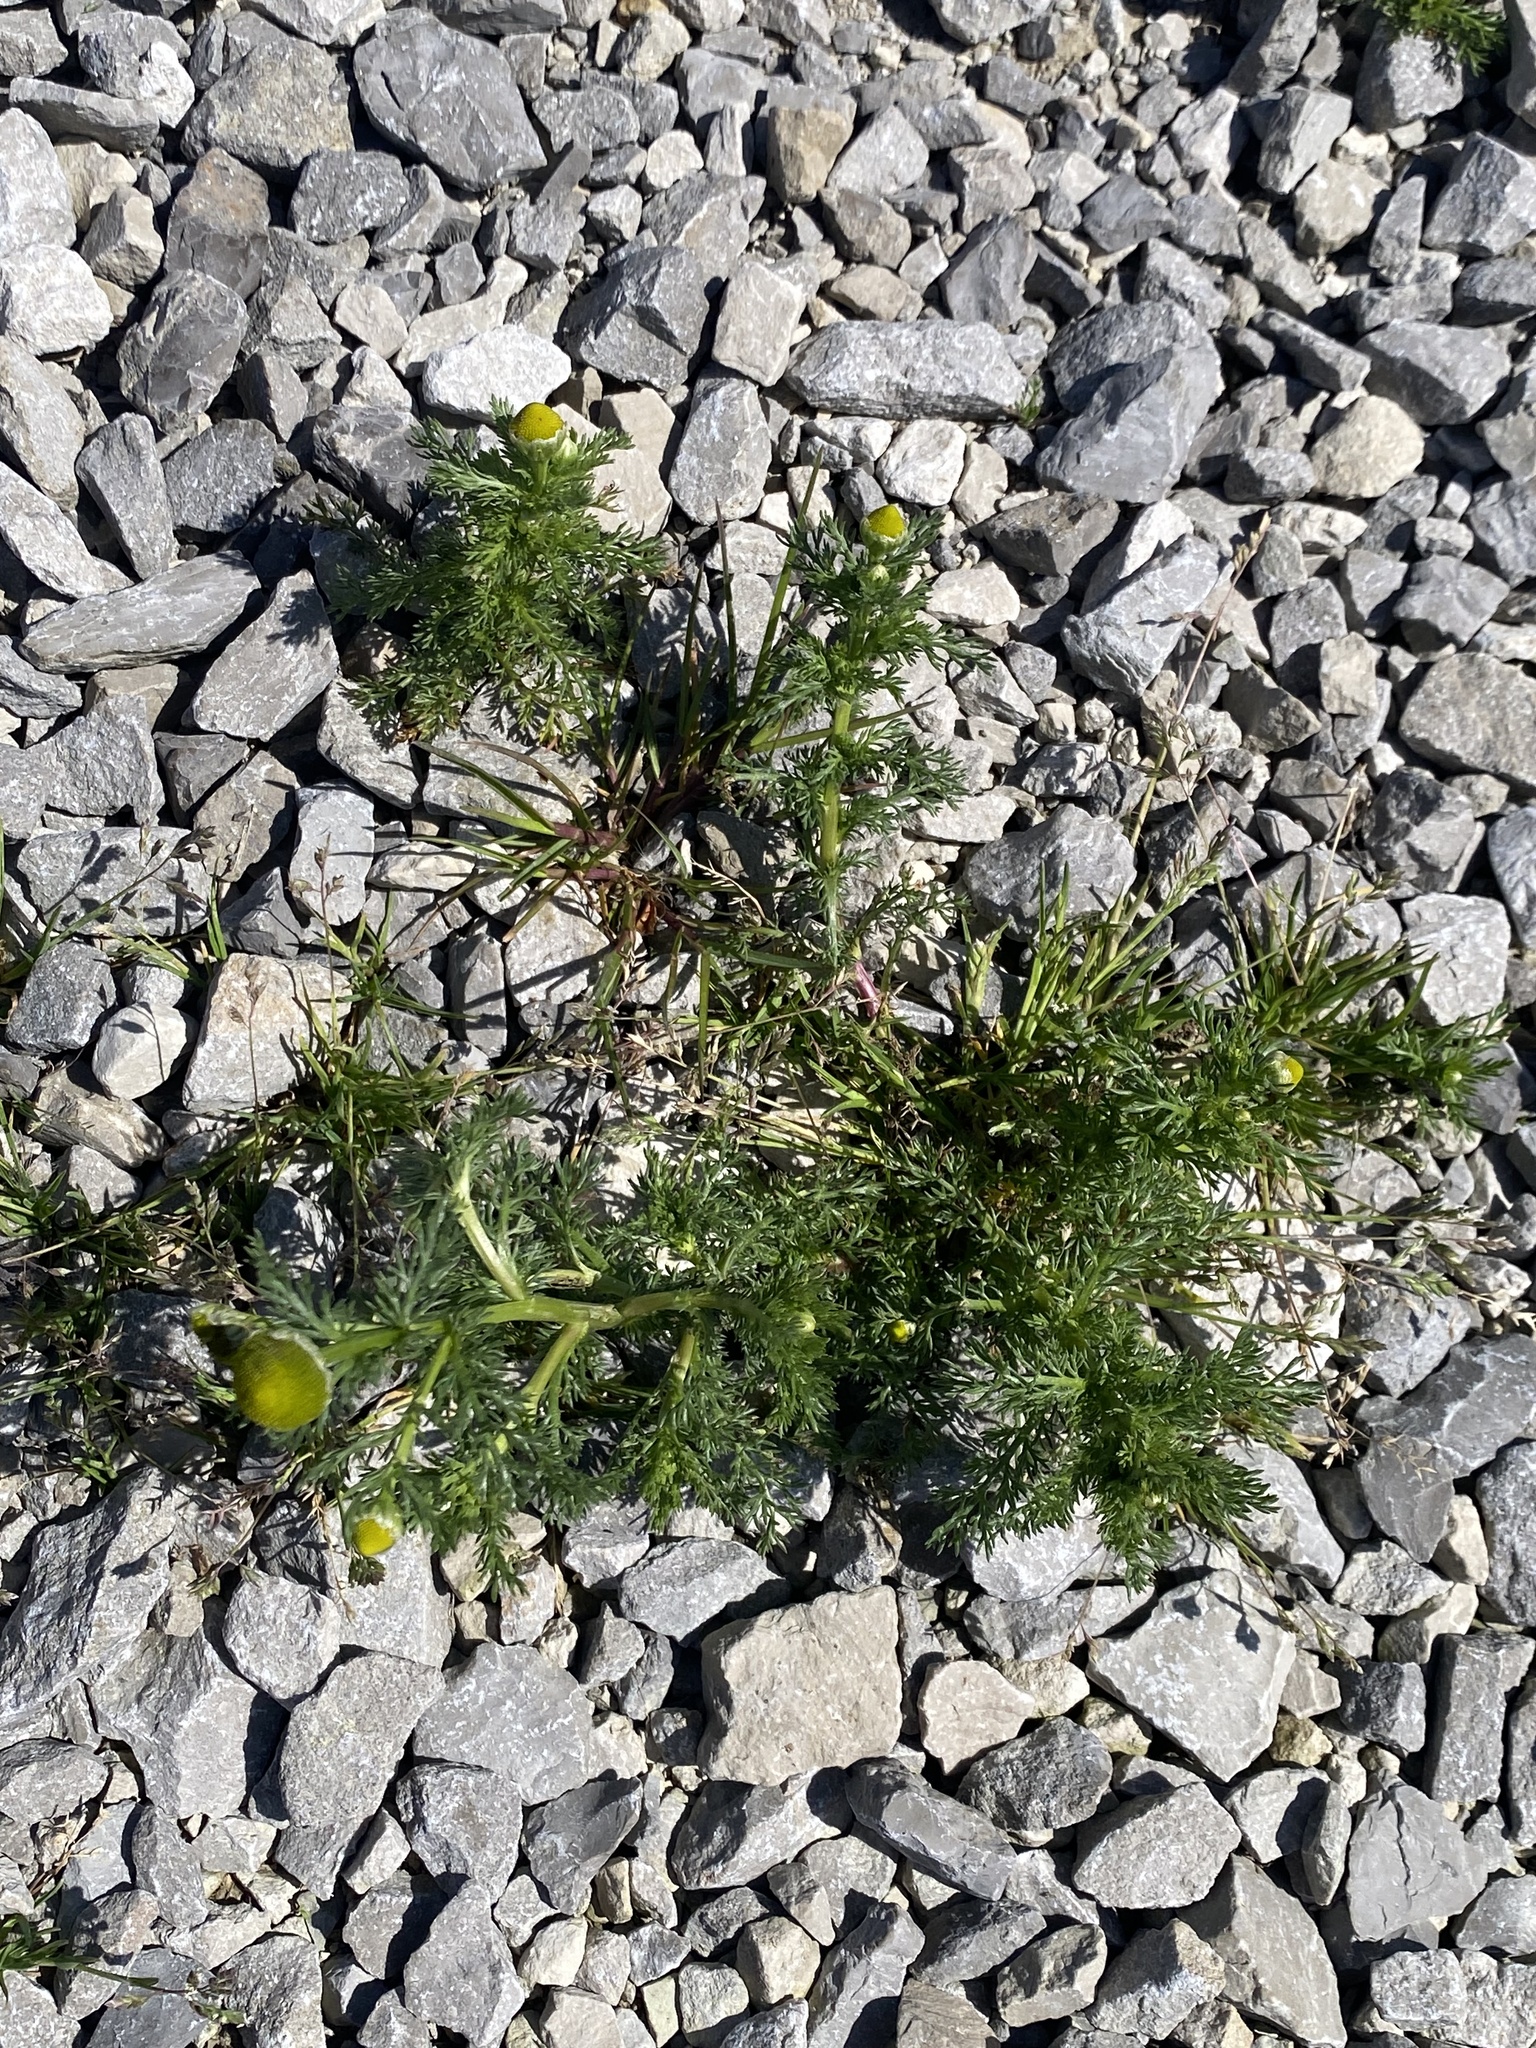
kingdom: Plantae
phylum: Tracheophyta
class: Magnoliopsida
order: Asterales
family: Asteraceae
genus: Matricaria
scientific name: Matricaria discoidea
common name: Disc mayweed
